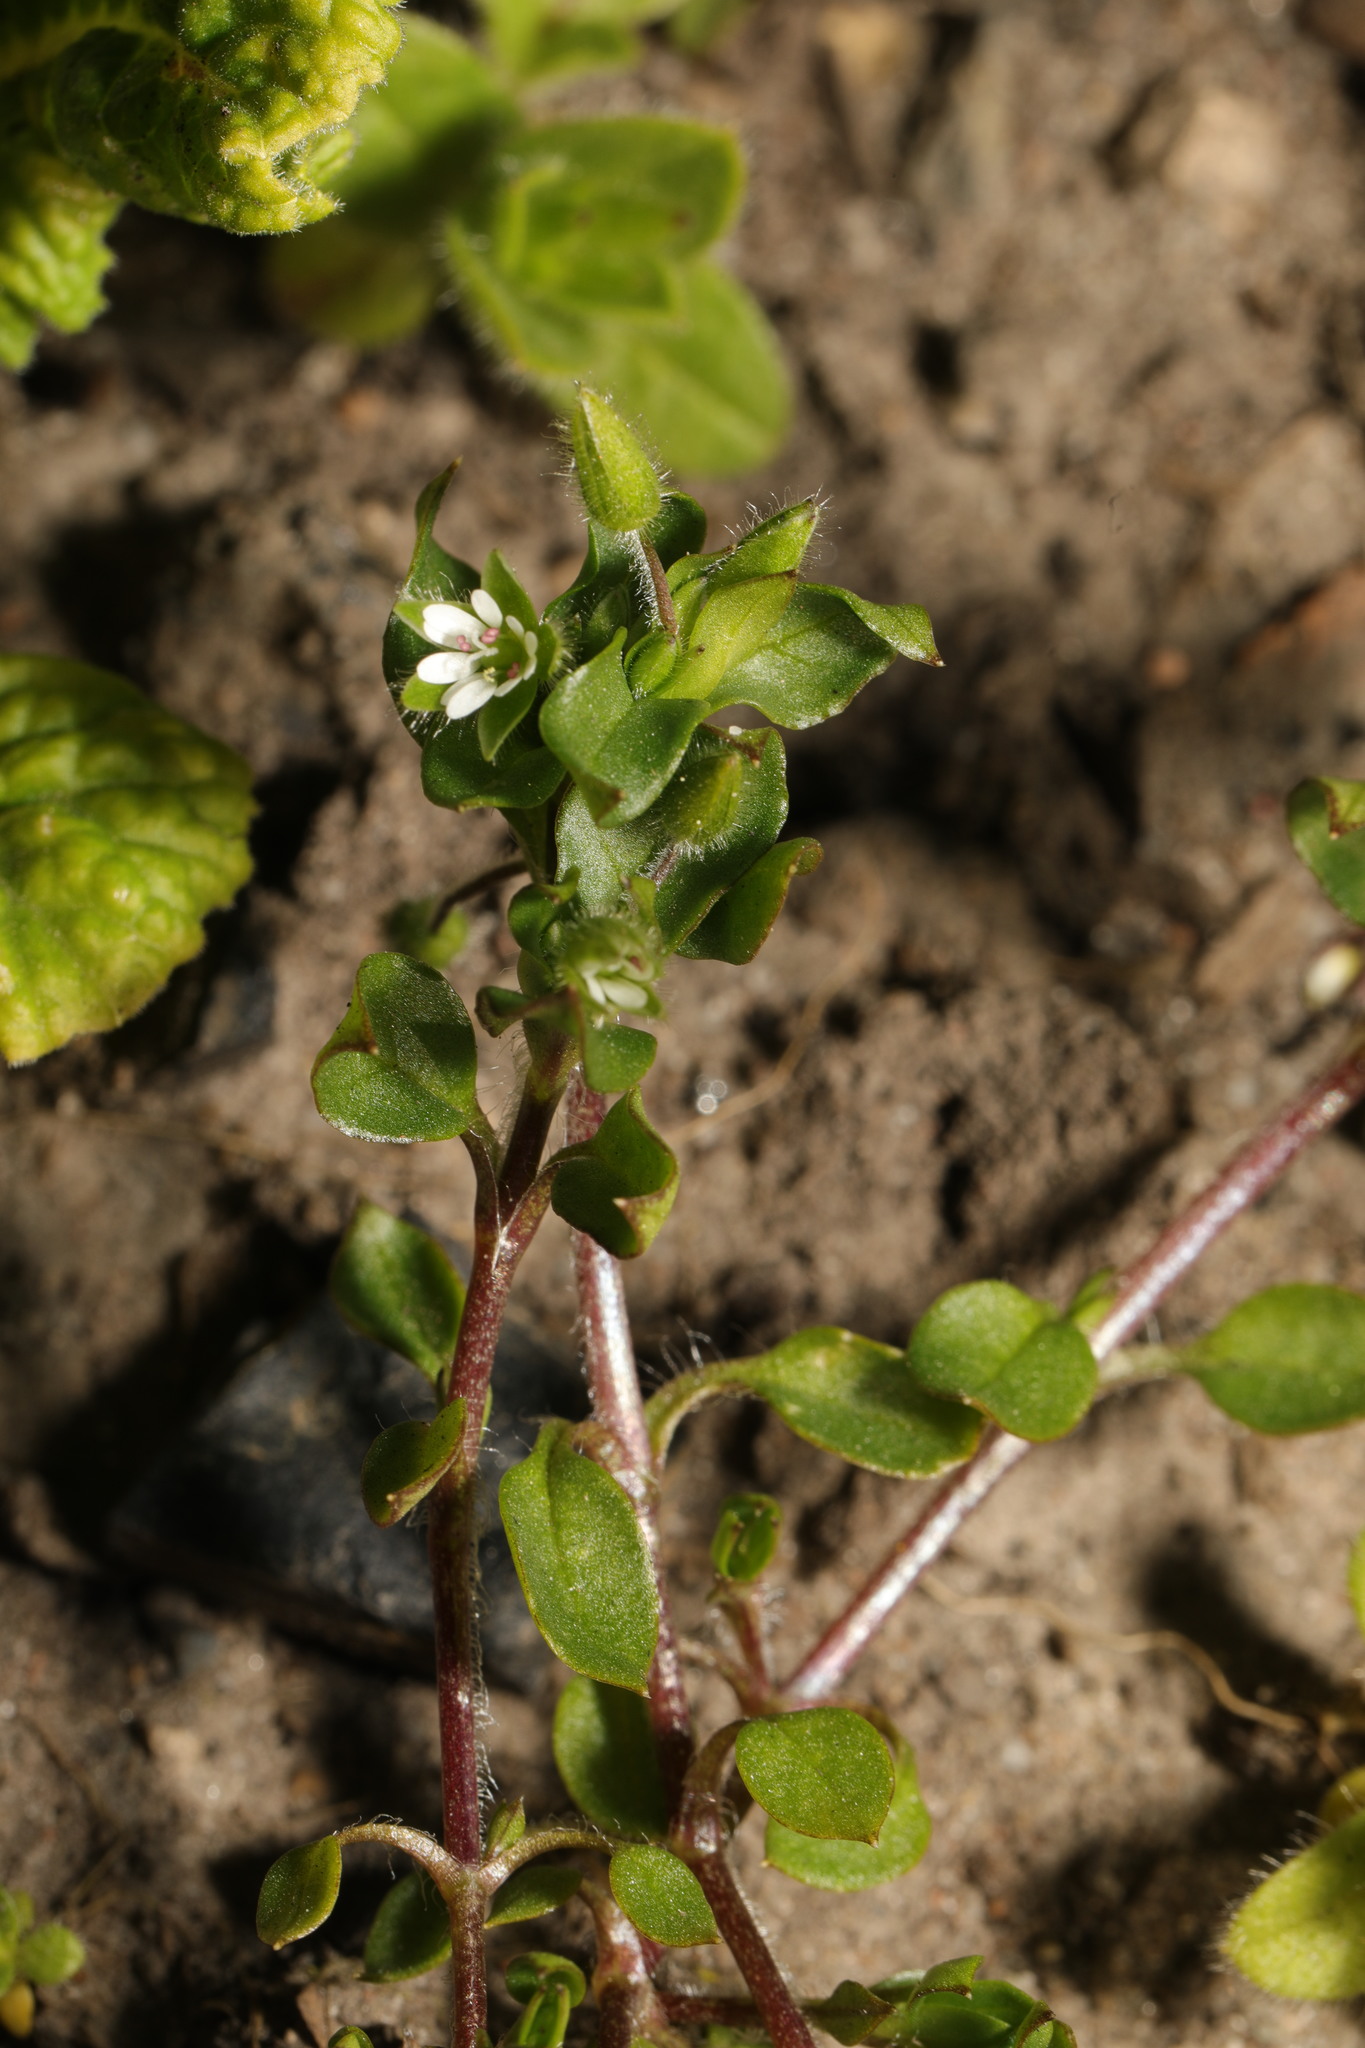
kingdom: Plantae
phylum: Tracheophyta
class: Magnoliopsida
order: Caryophyllales
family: Caryophyllaceae
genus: Stellaria
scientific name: Stellaria media
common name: Common chickweed
